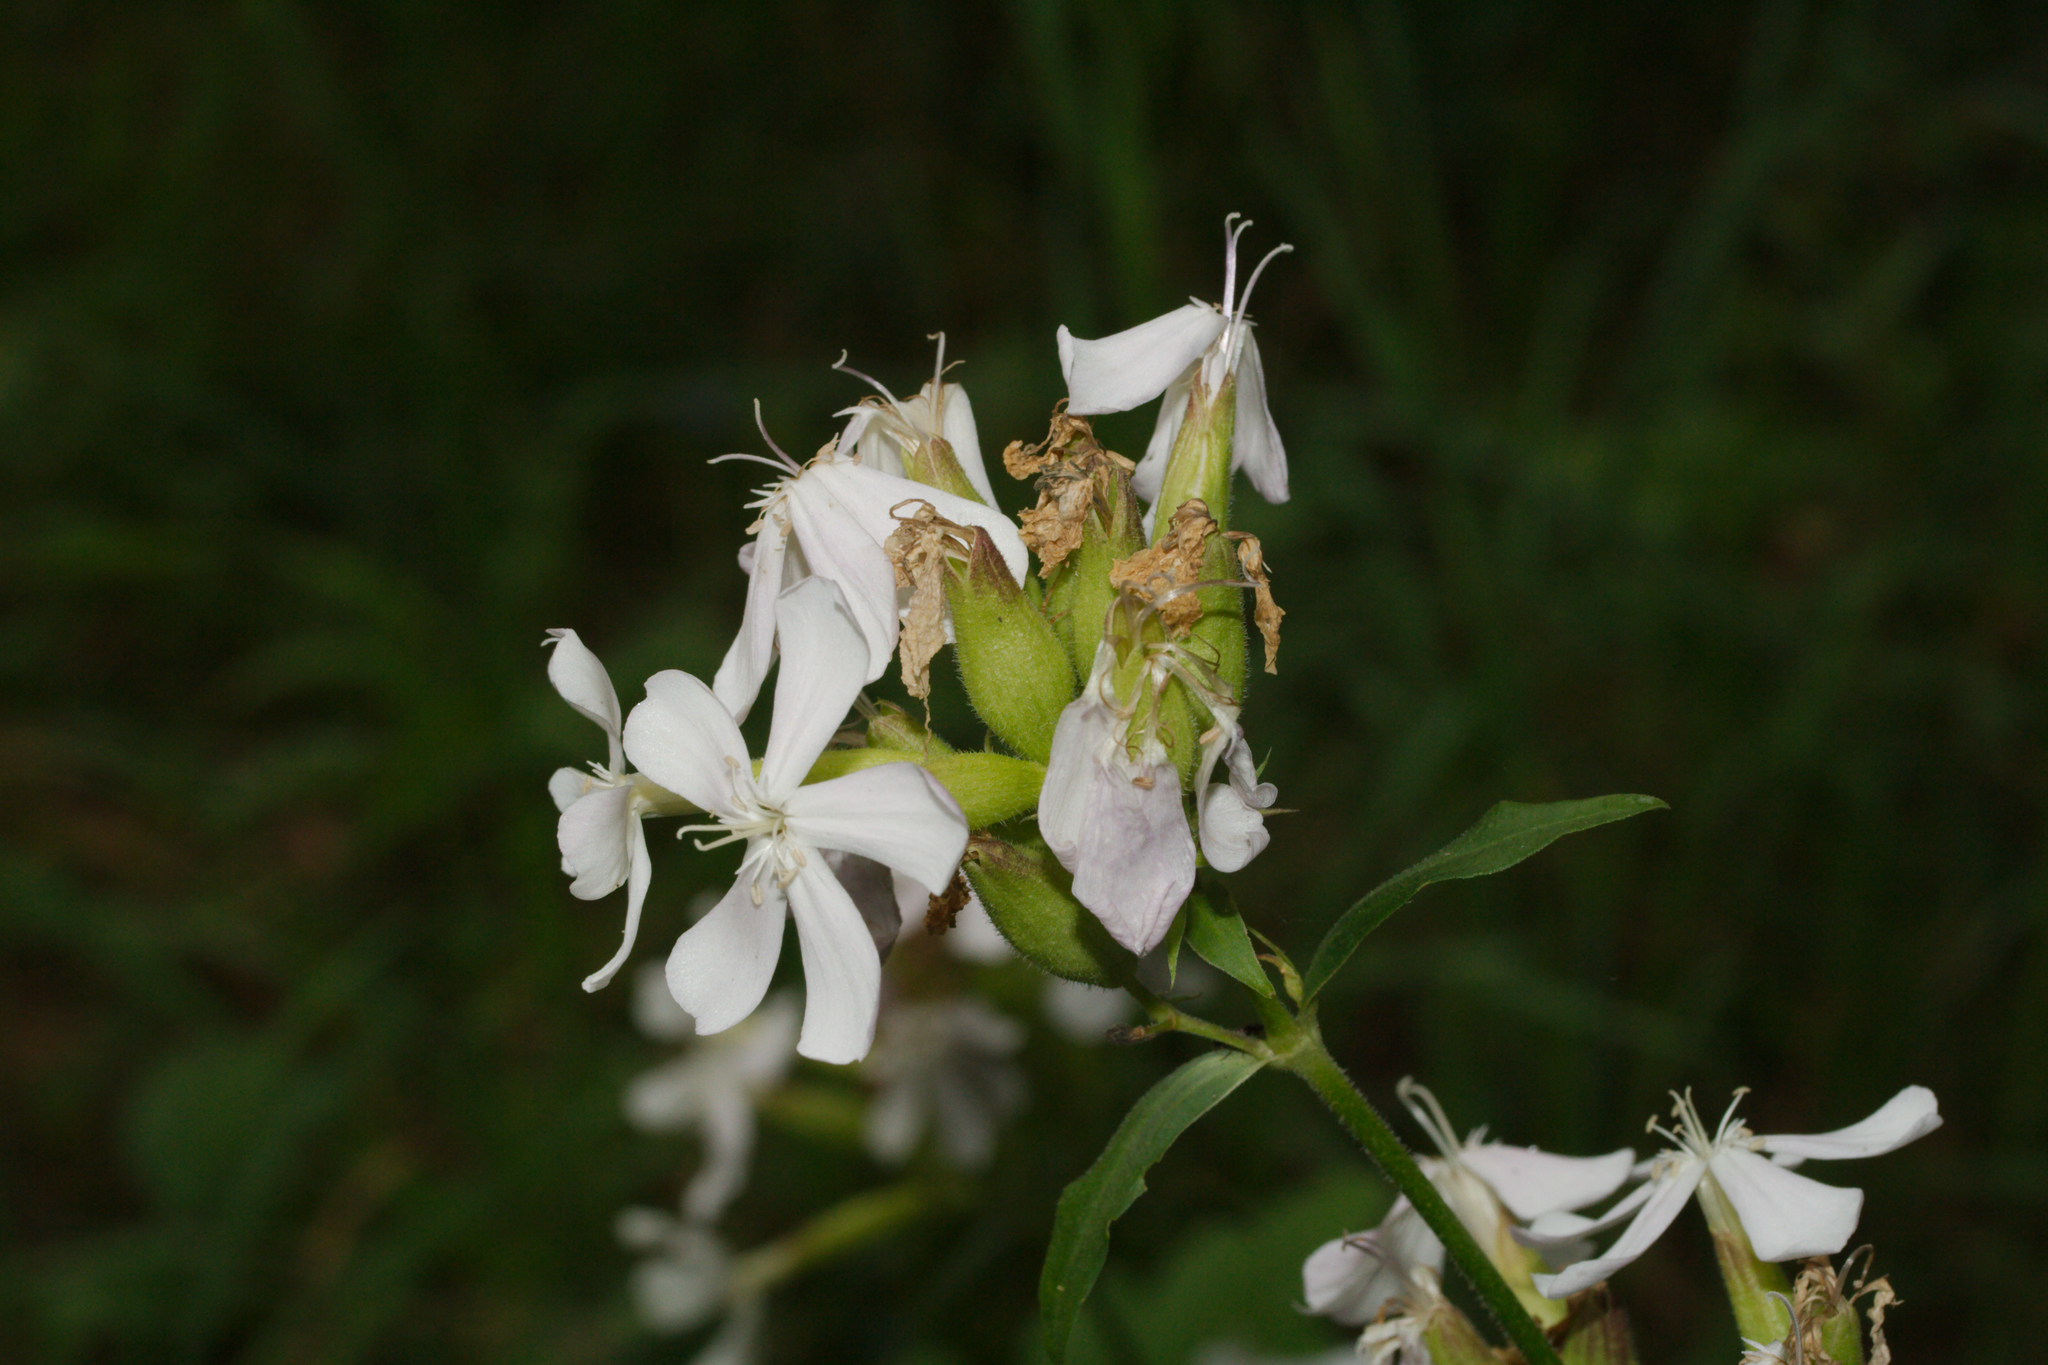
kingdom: Plantae
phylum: Tracheophyta
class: Magnoliopsida
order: Caryophyllales
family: Caryophyllaceae
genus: Saponaria
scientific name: Saponaria officinalis
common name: Soapwort
